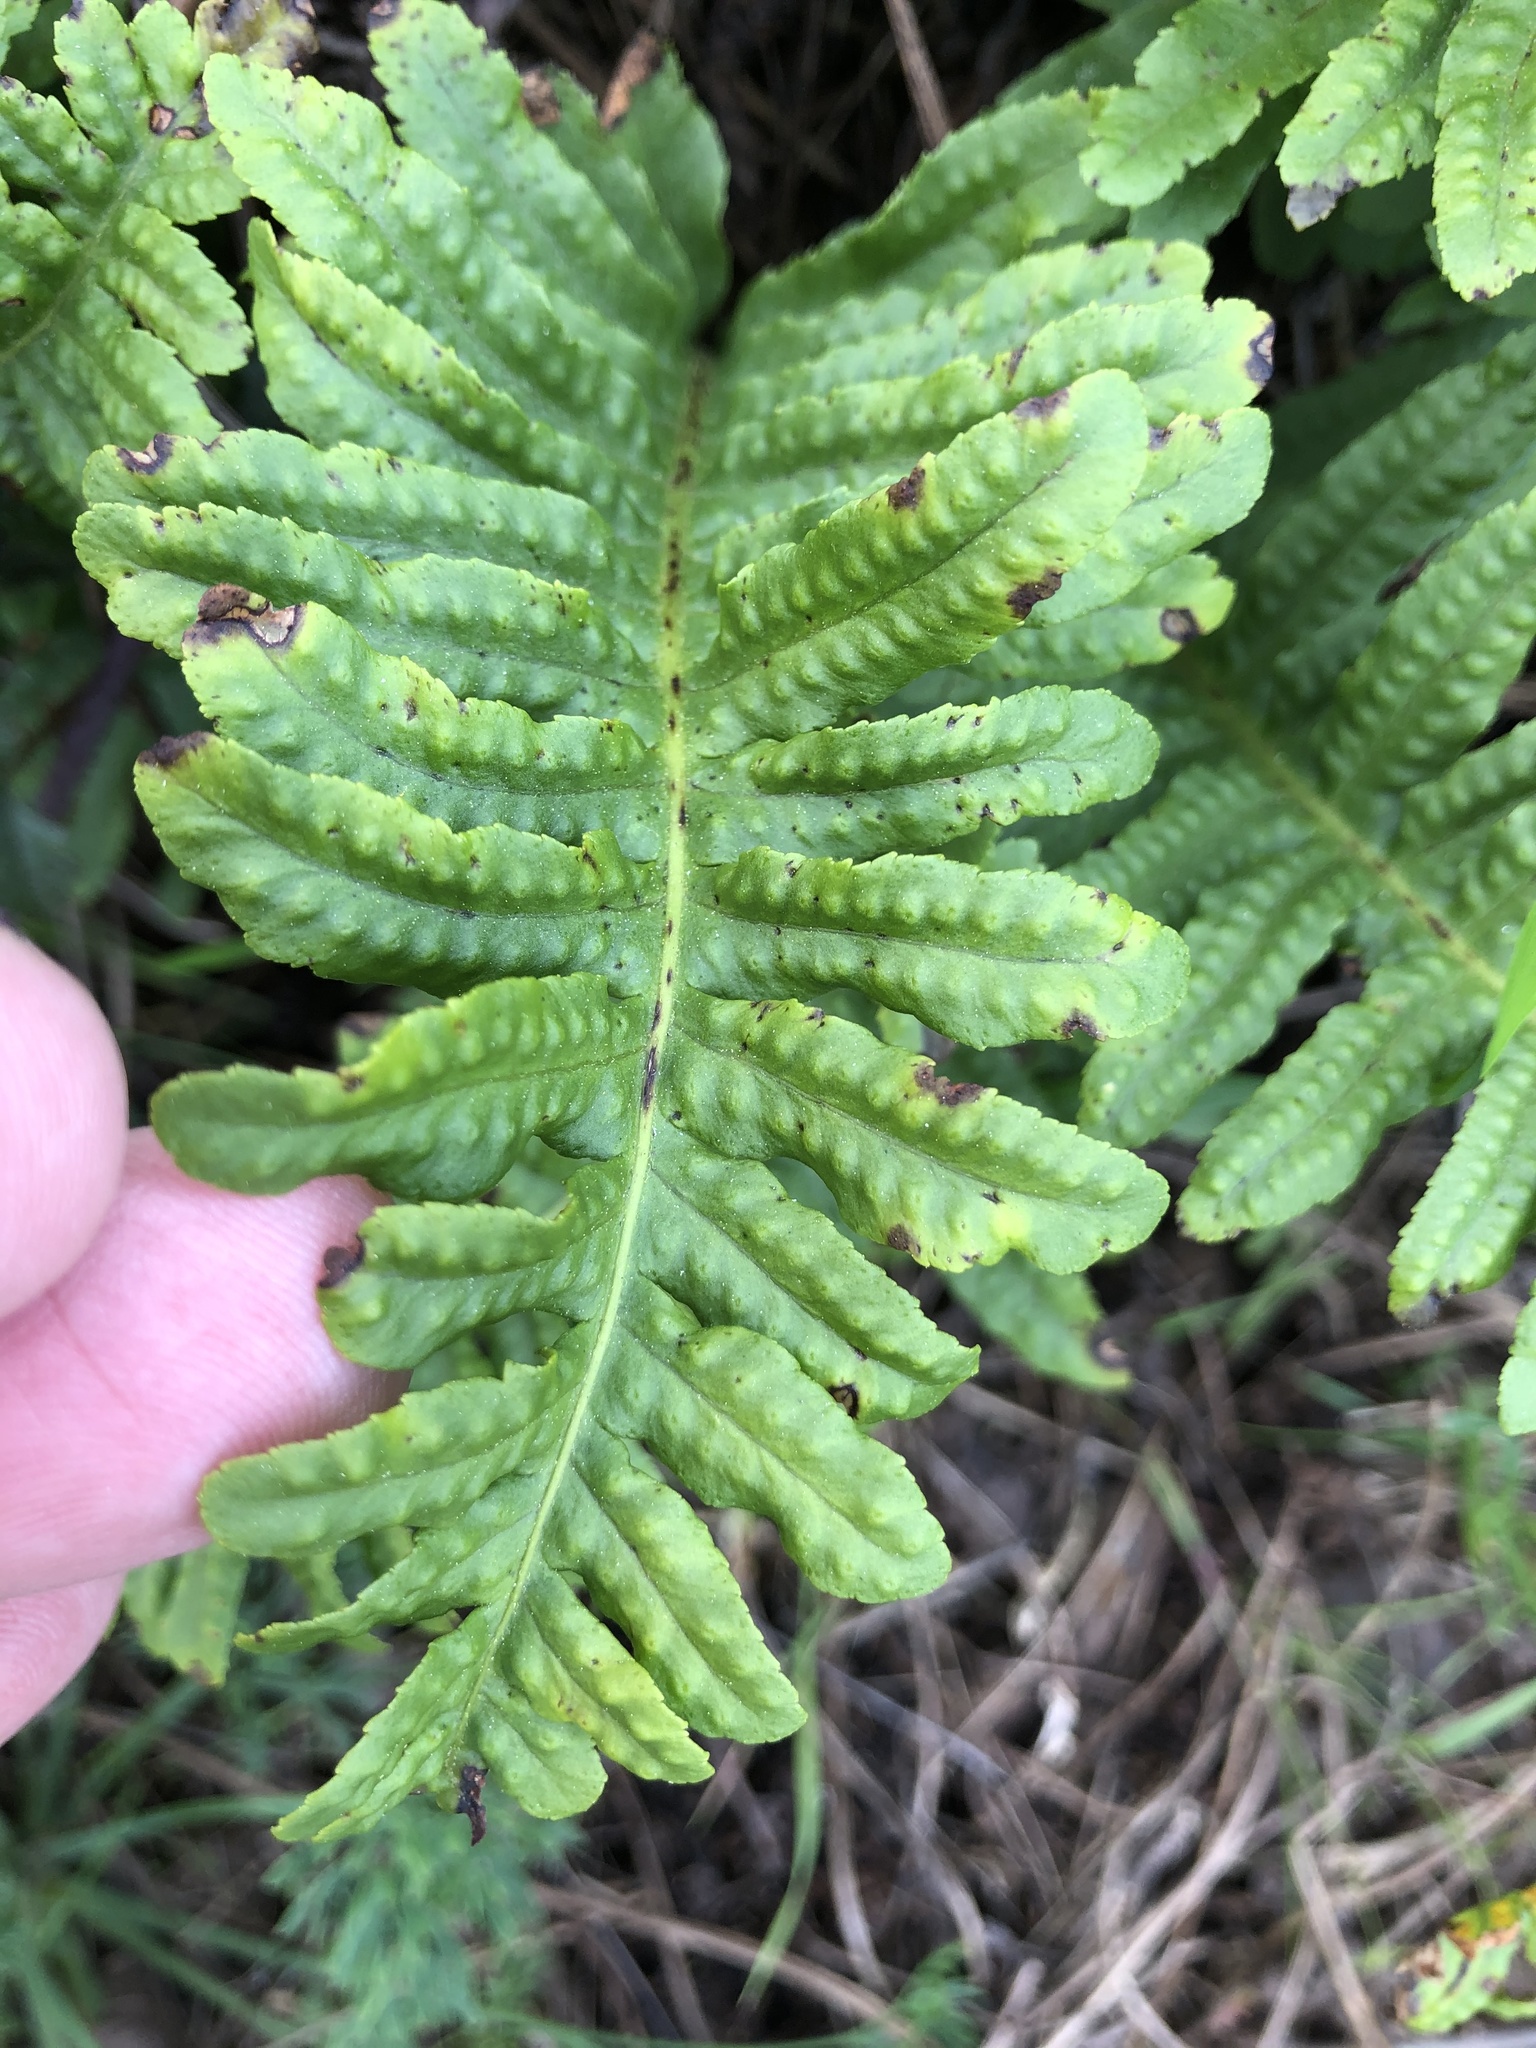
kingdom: Plantae
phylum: Tracheophyta
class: Polypodiopsida
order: Polypodiales
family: Polypodiaceae
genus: Polypodium
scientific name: Polypodium californicum
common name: California polypody
